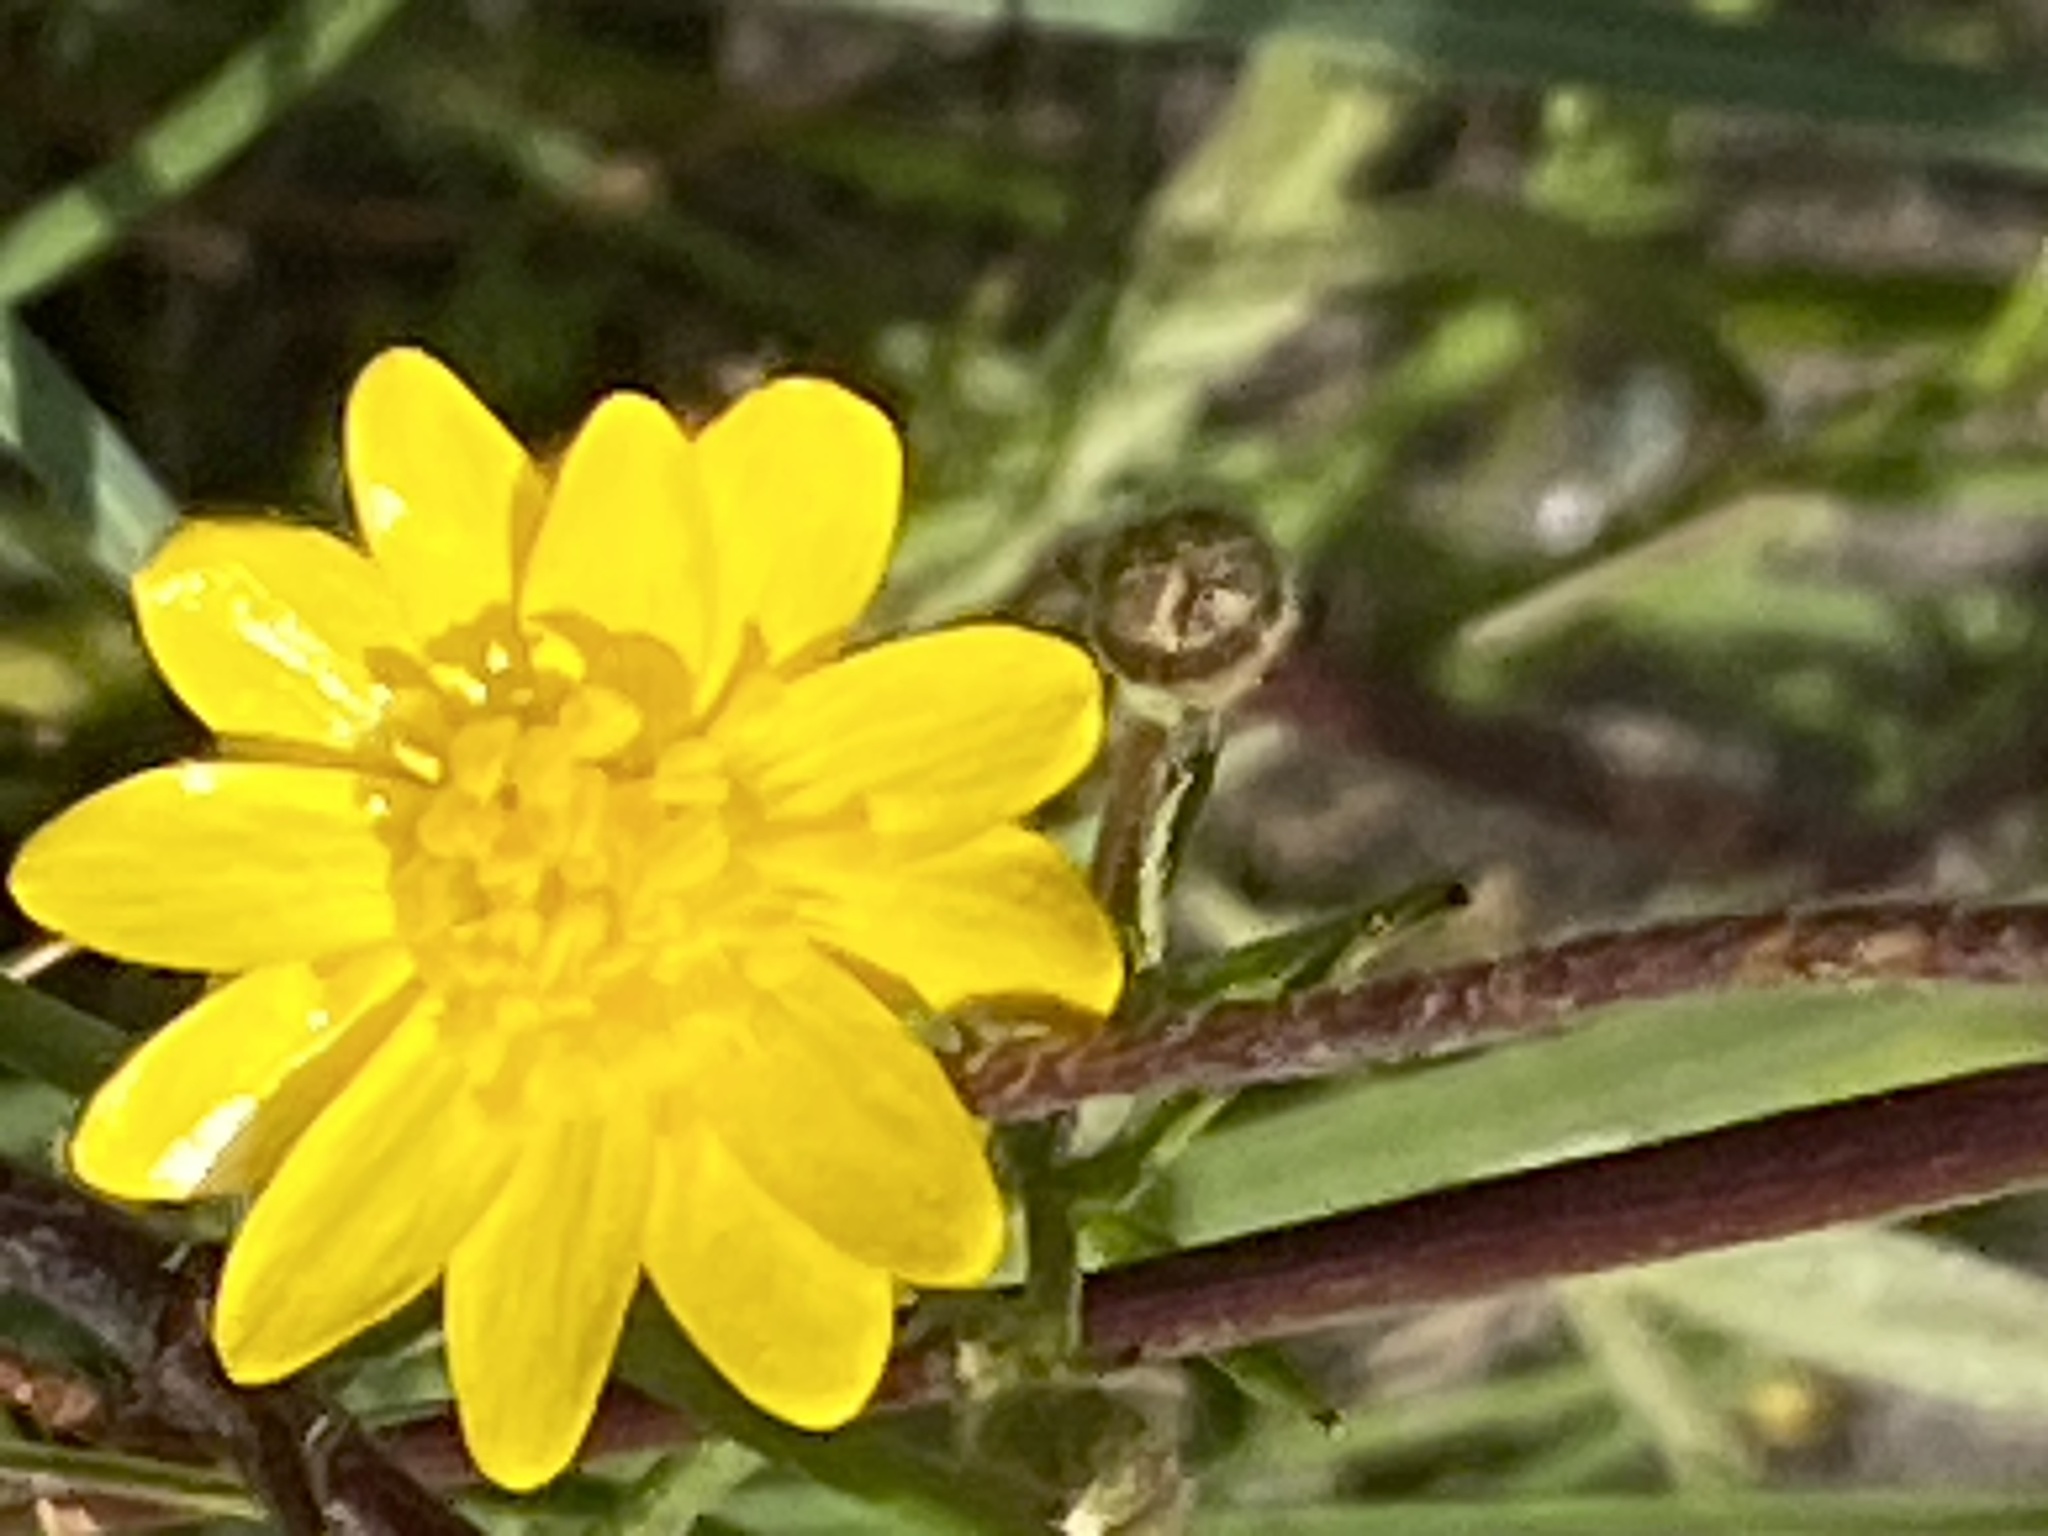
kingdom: Plantae
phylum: Tracheophyta
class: Magnoliopsida
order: Ranunculales
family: Ranunculaceae
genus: Ranunculus
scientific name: Ranunculus californicus
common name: California buttercup
